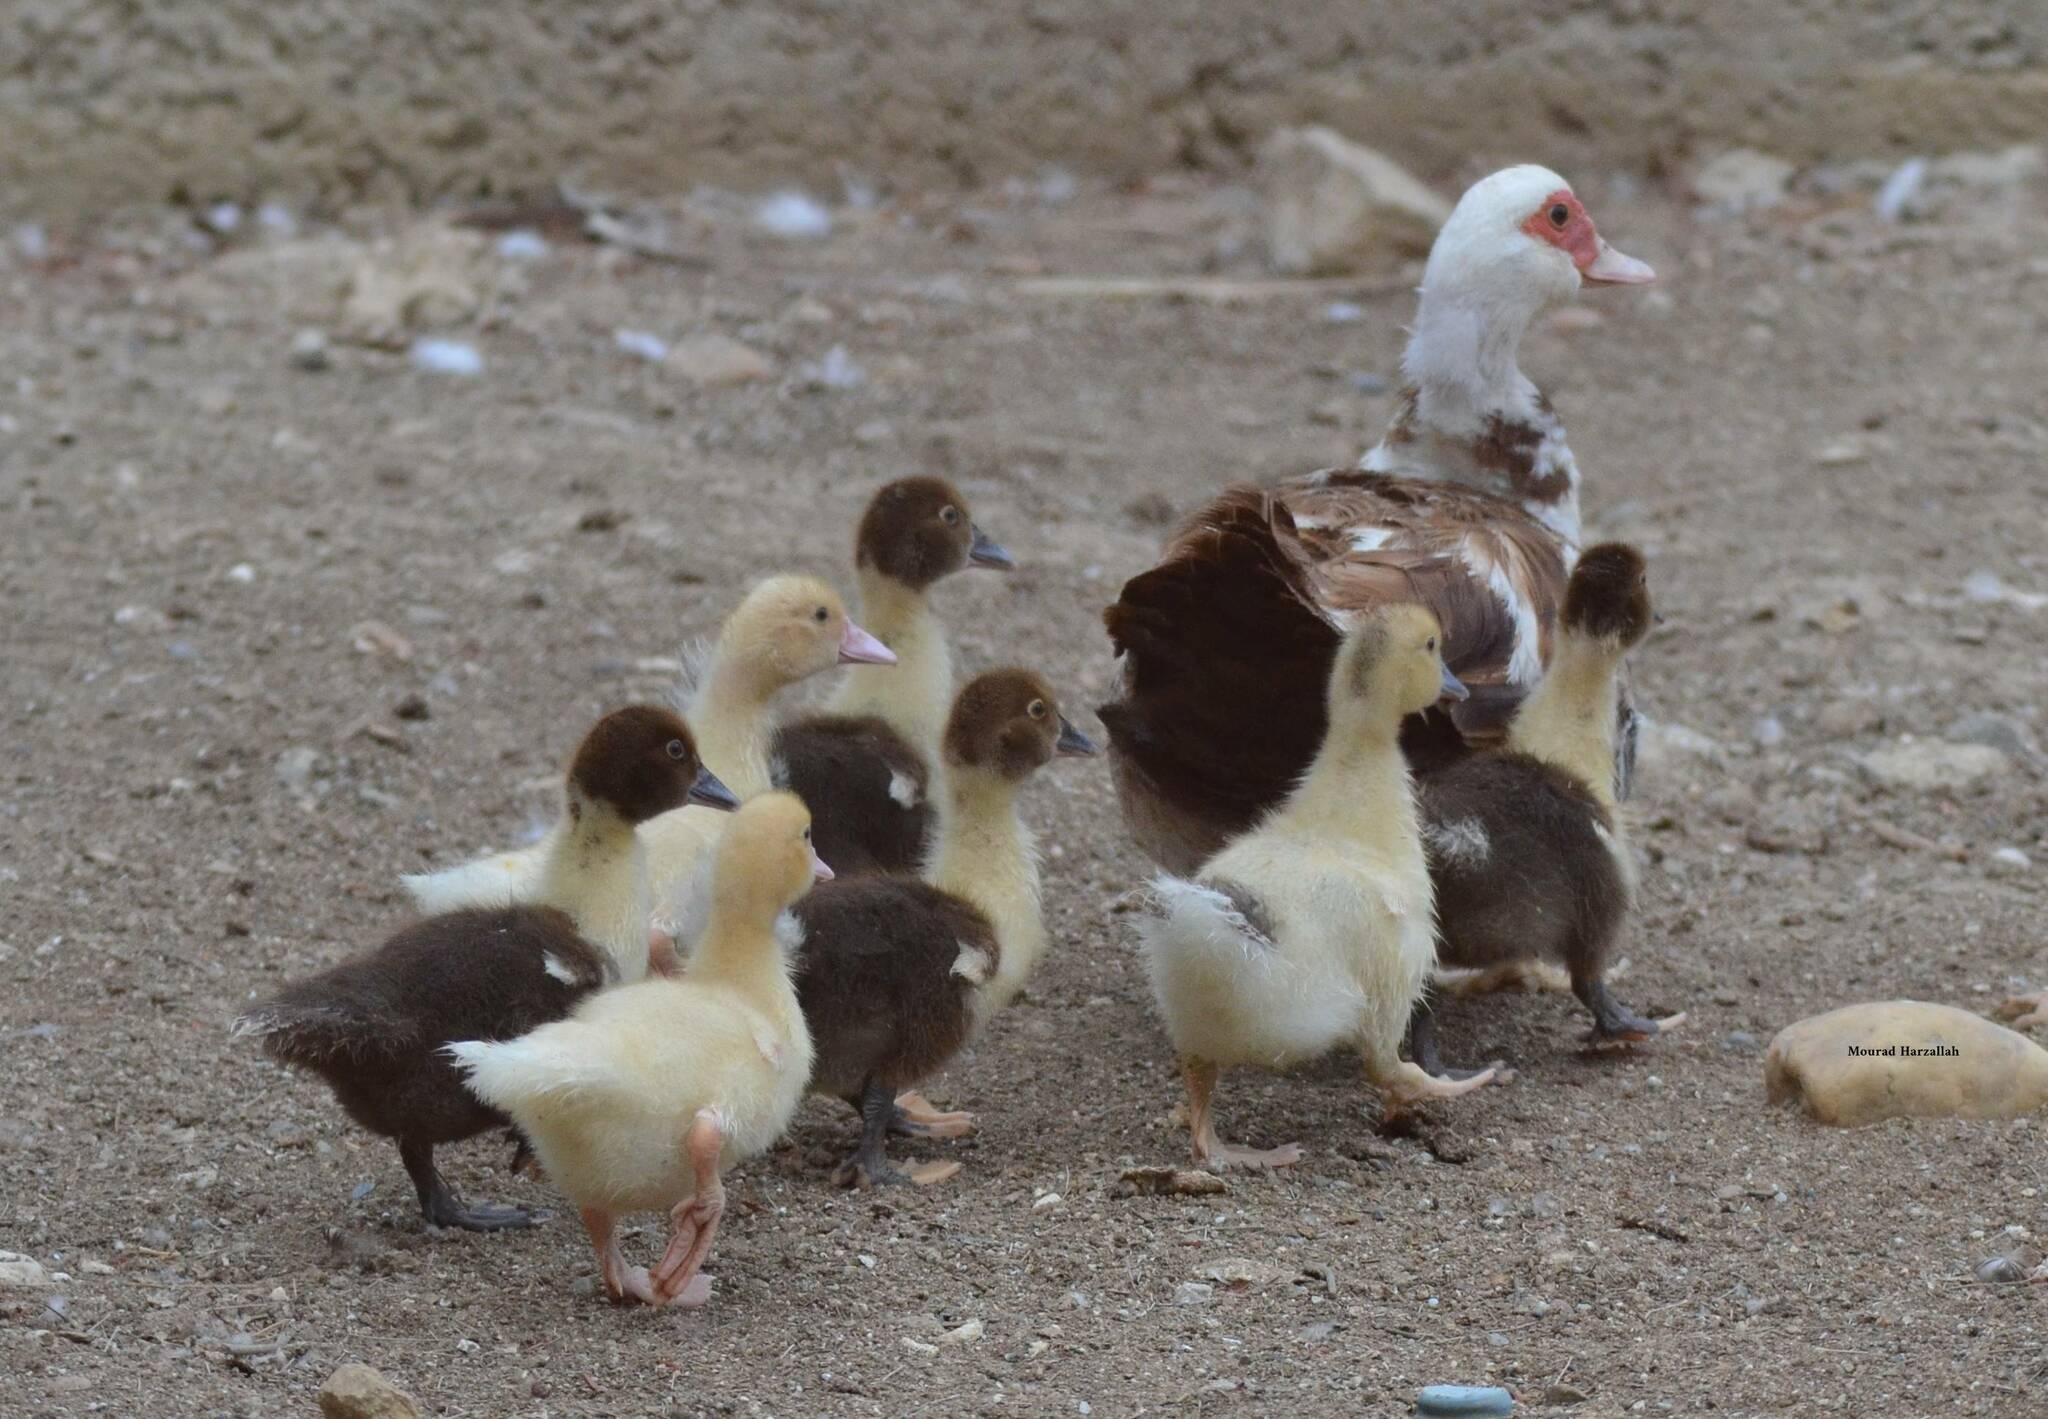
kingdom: Animalia
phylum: Chordata
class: Aves
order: Anseriformes
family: Anatidae
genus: Cairina
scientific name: Cairina moschata
